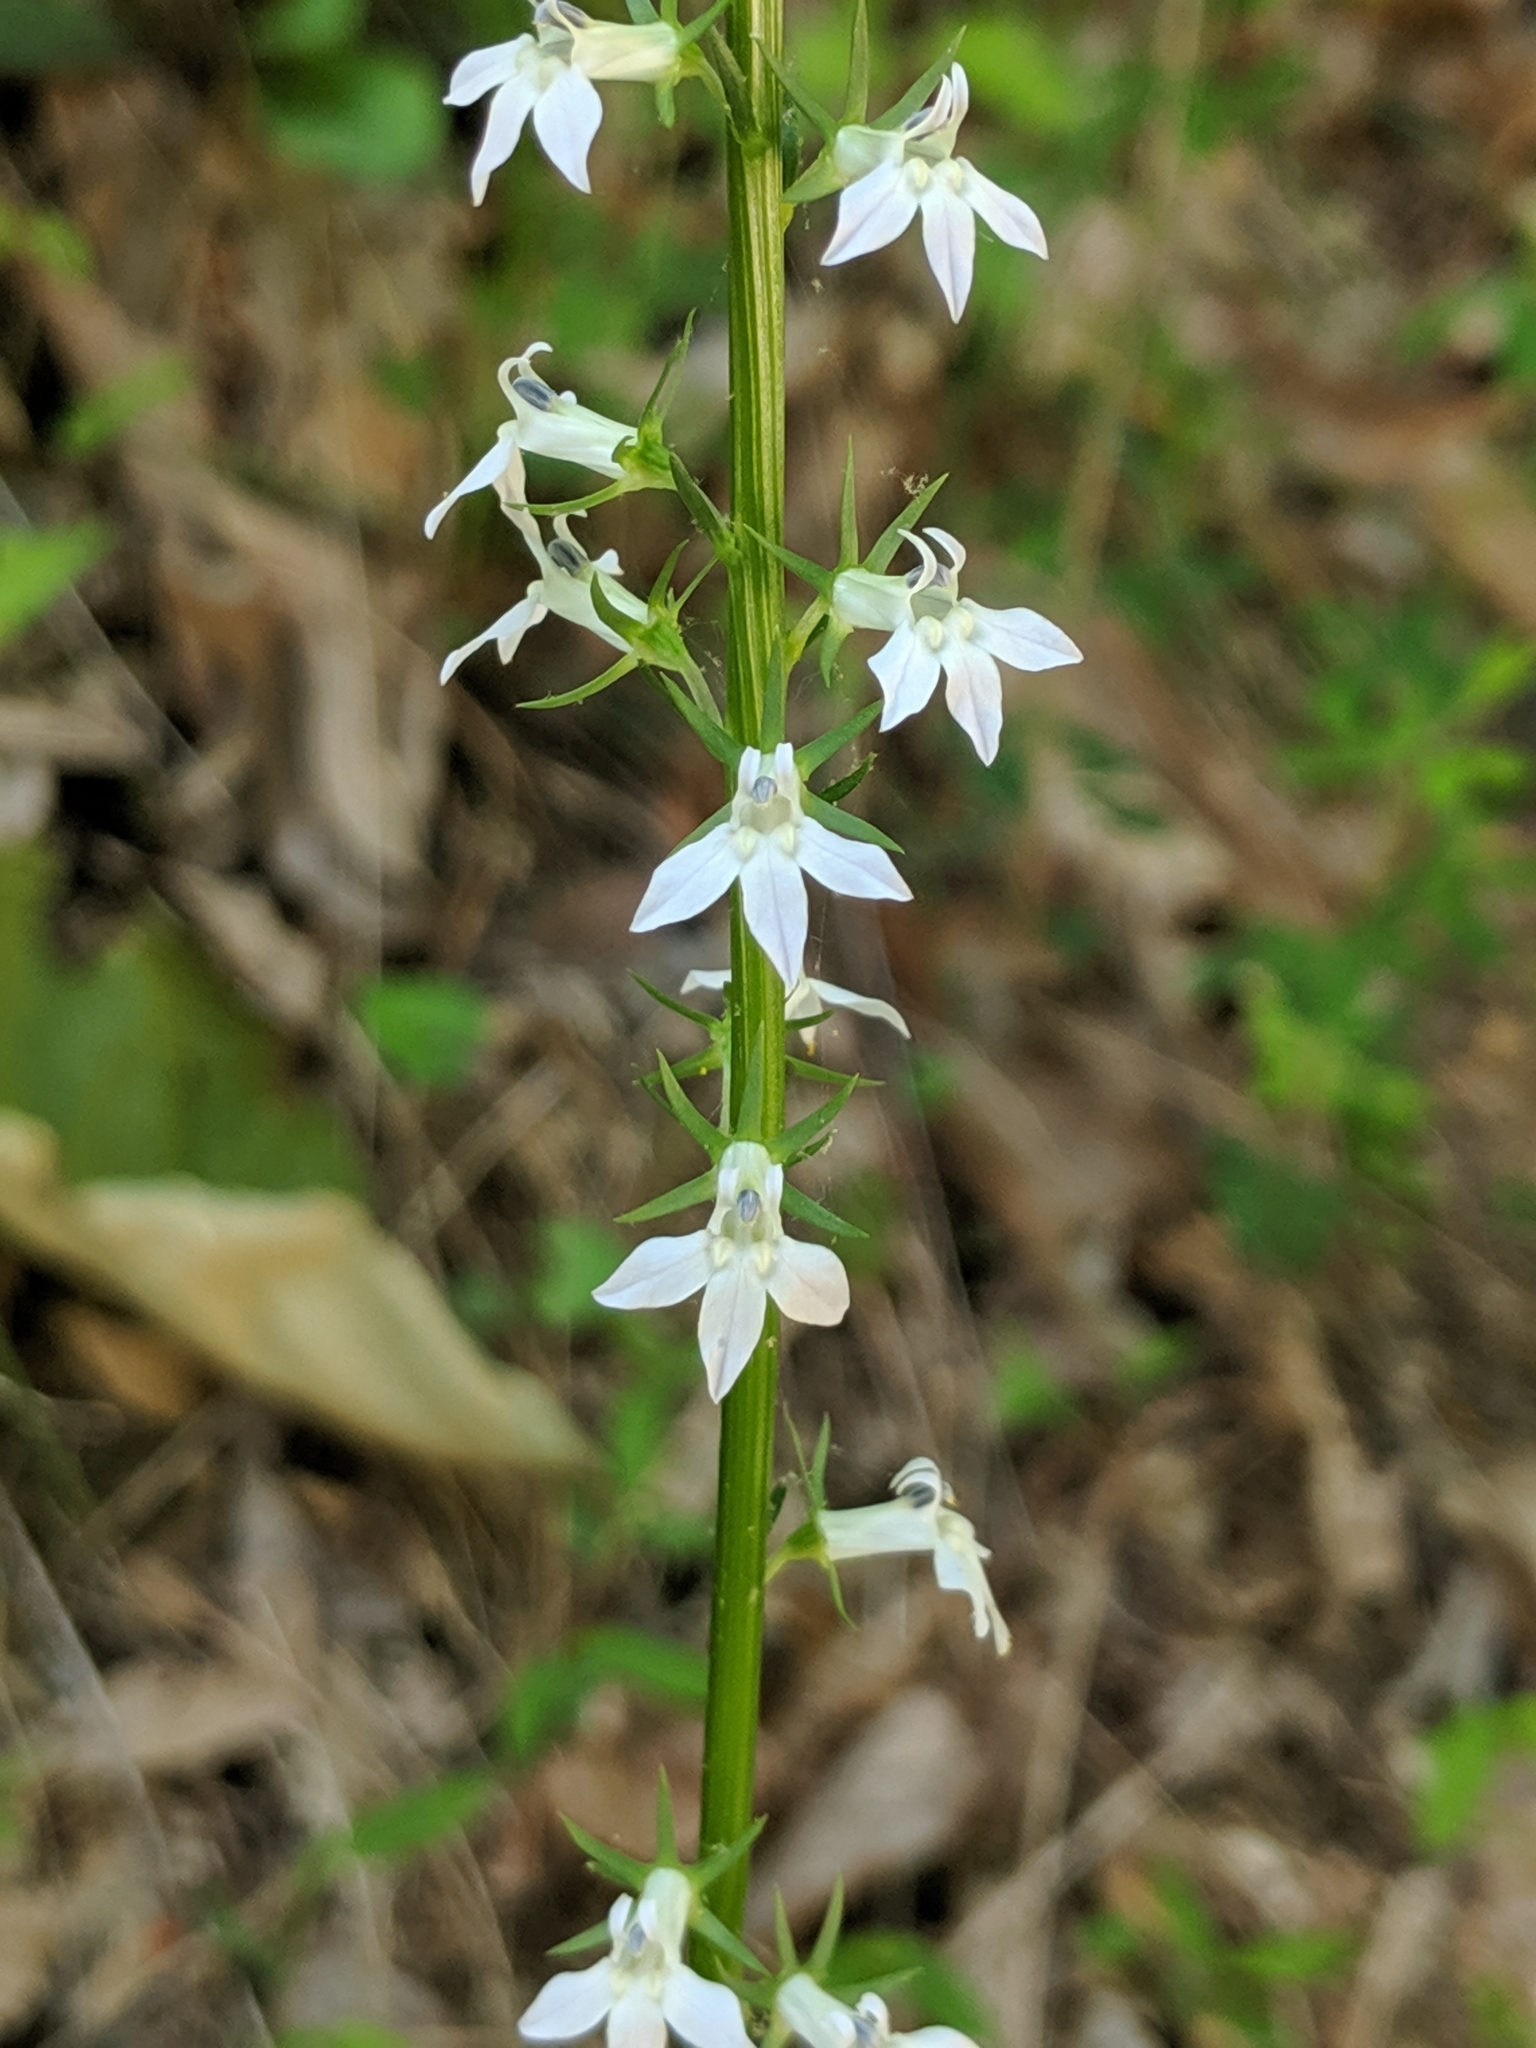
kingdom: Plantae
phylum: Tracheophyta
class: Magnoliopsida
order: Asterales
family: Campanulaceae
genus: Lobelia
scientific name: Lobelia spicata
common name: Pale-spike lobelia
